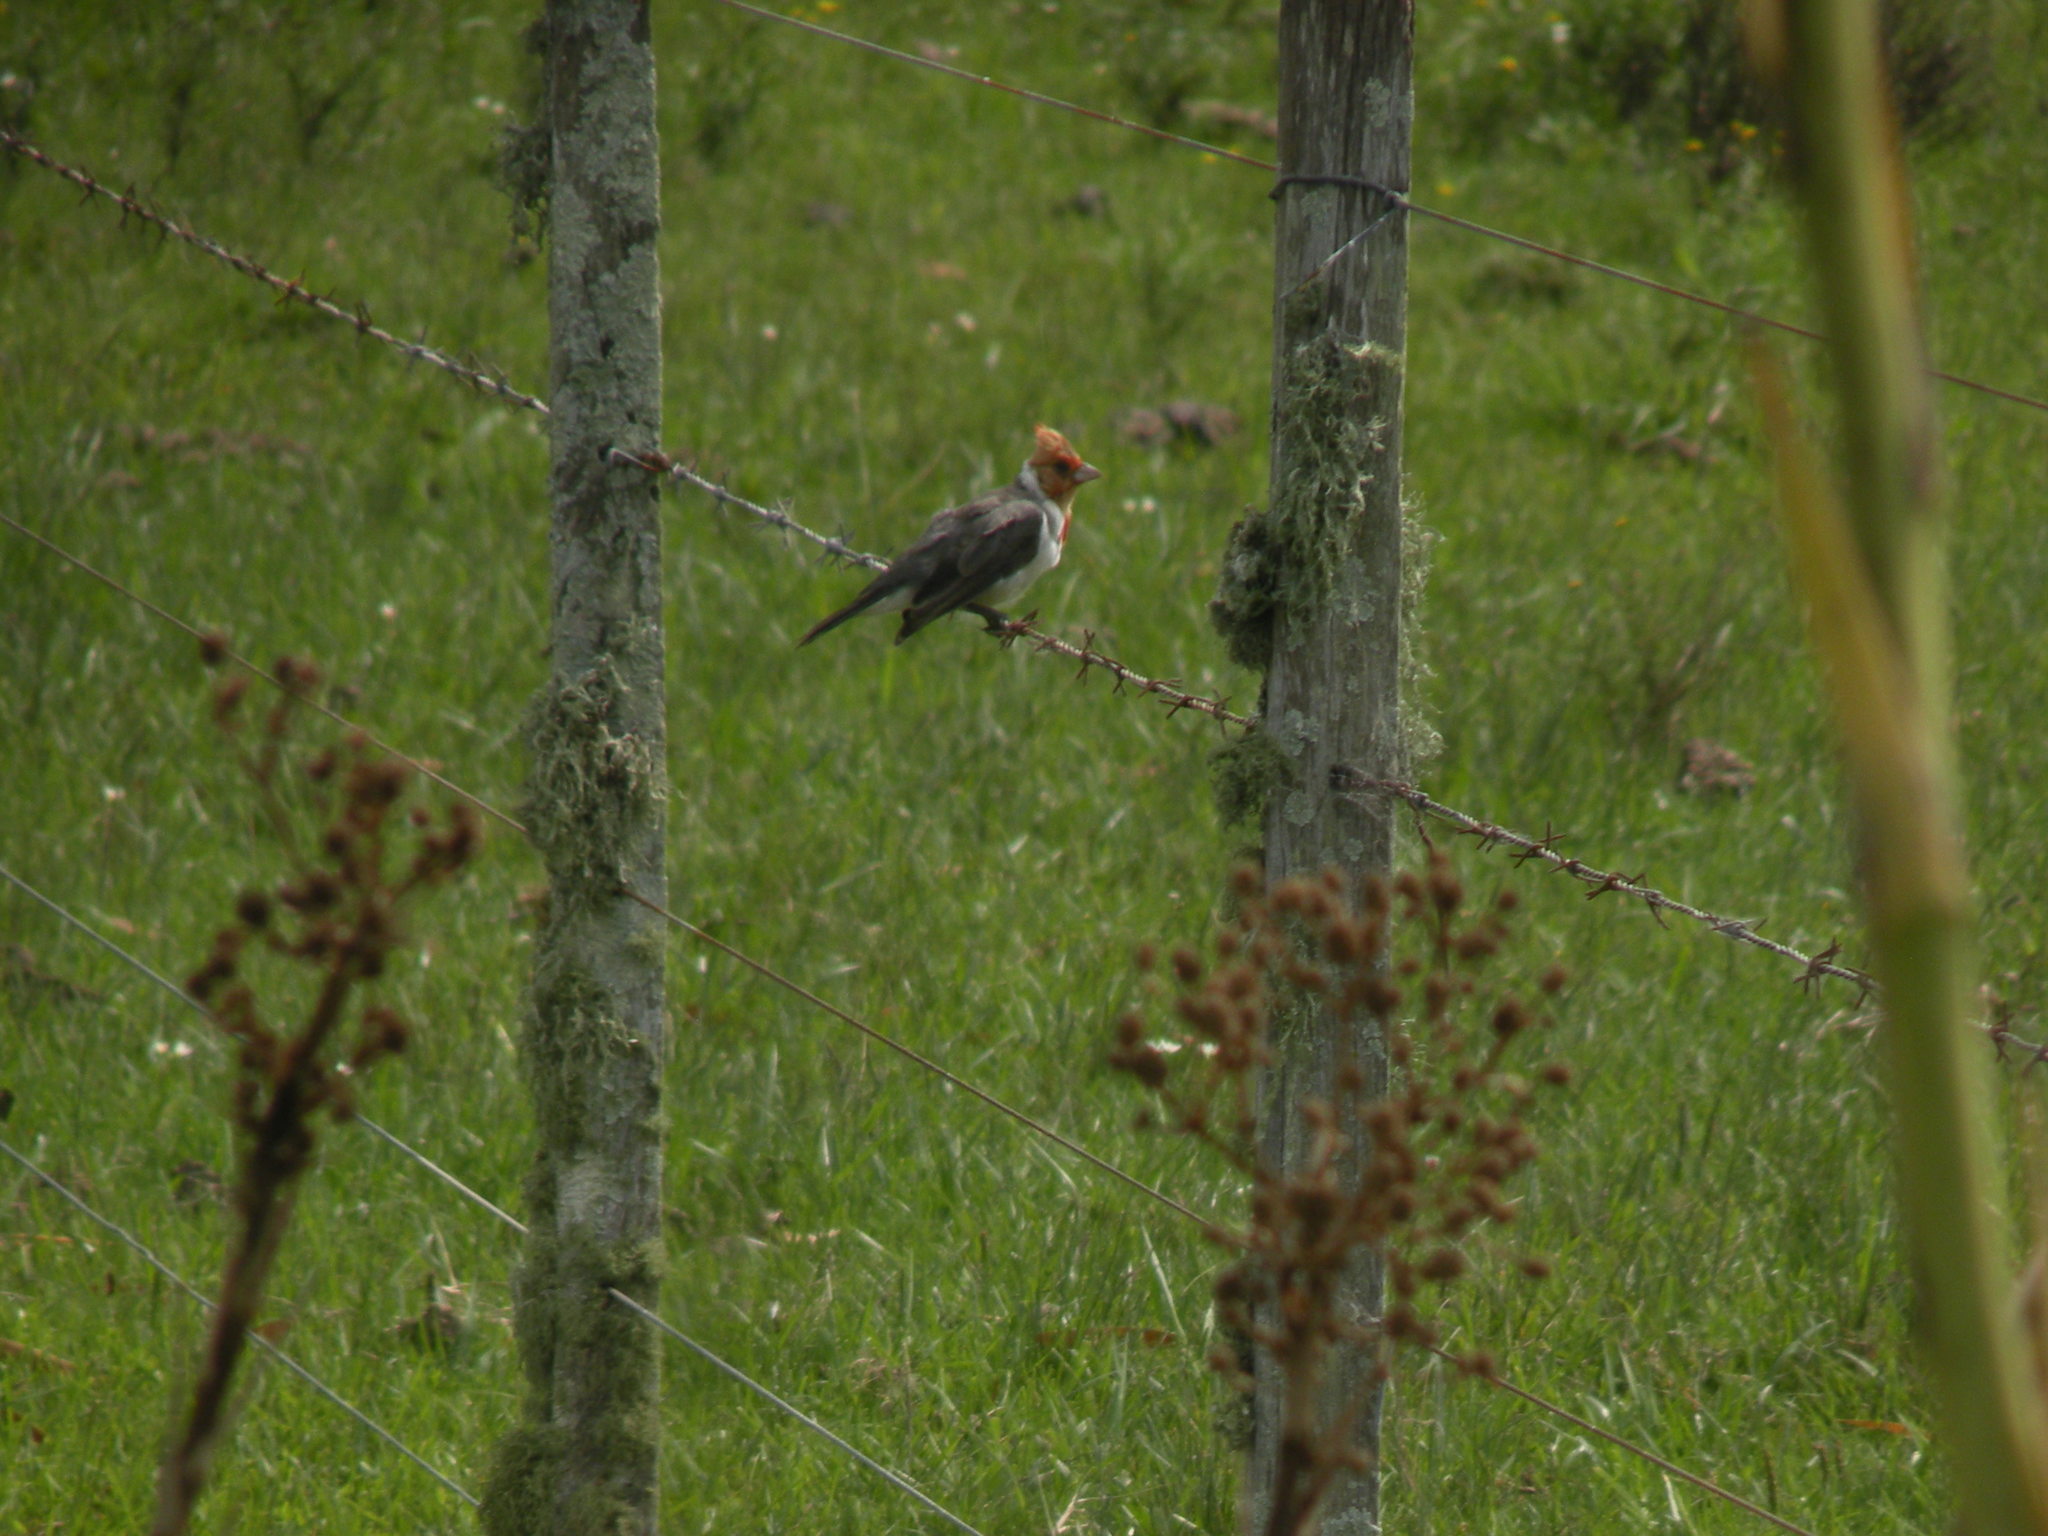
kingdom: Animalia
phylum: Chordata
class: Aves
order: Passeriformes
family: Thraupidae
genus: Paroaria
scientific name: Paroaria coronata
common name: Red-crested cardinal
